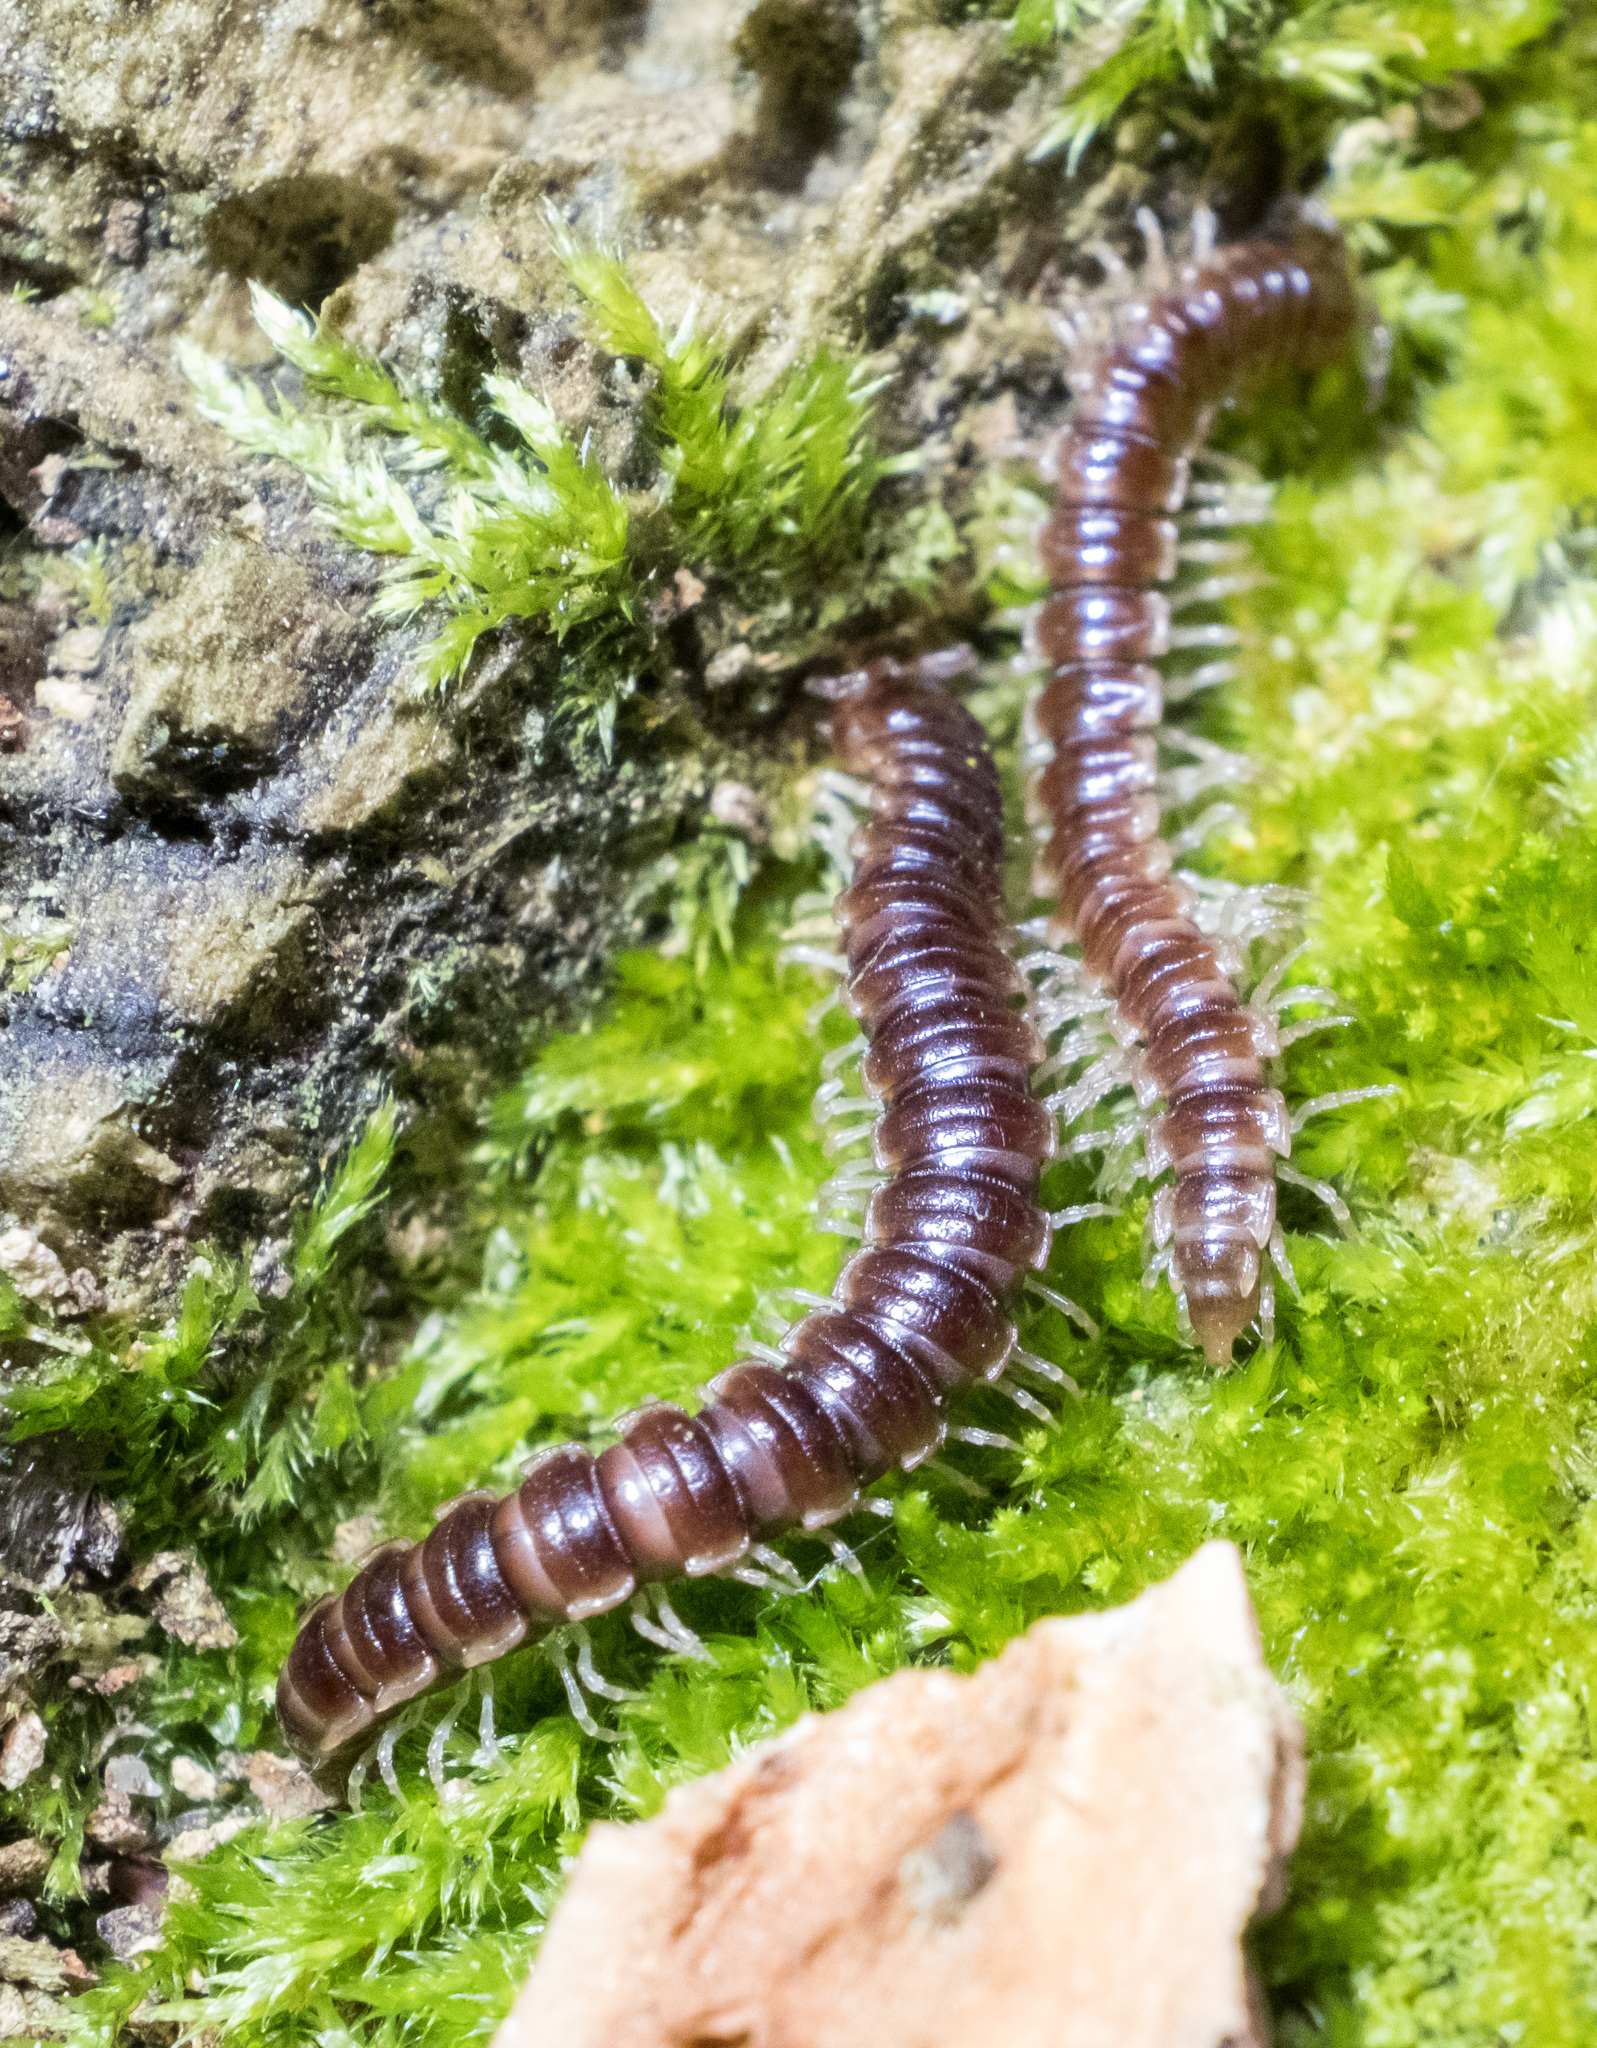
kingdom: Animalia
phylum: Arthropoda
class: Diplopoda
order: Polydesmida
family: Paradoxosomatidae
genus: Oxidus
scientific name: Oxidus gracilis
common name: Greenhouse millipede
